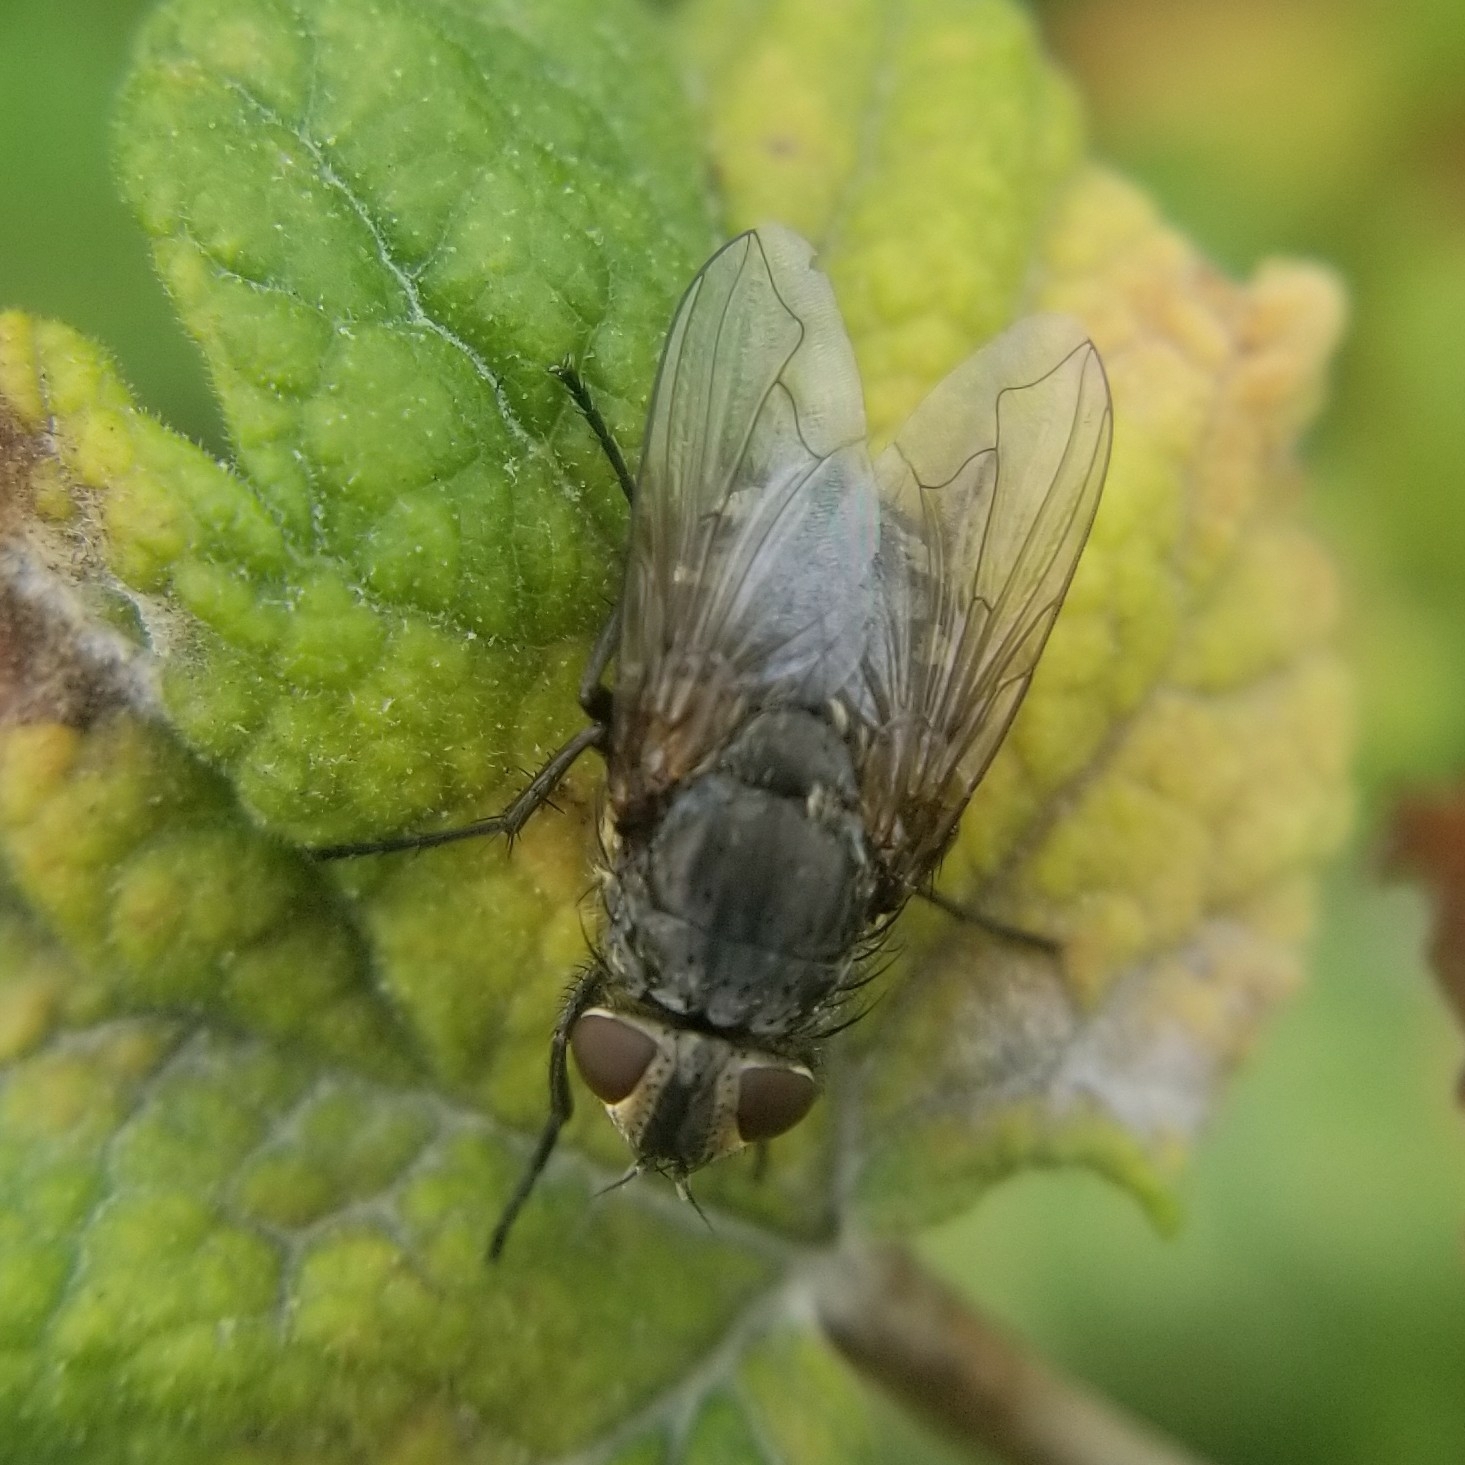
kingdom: Animalia
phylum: Arthropoda
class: Insecta
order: Diptera
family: Polleniidae
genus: Pollenia
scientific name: Pollenia
